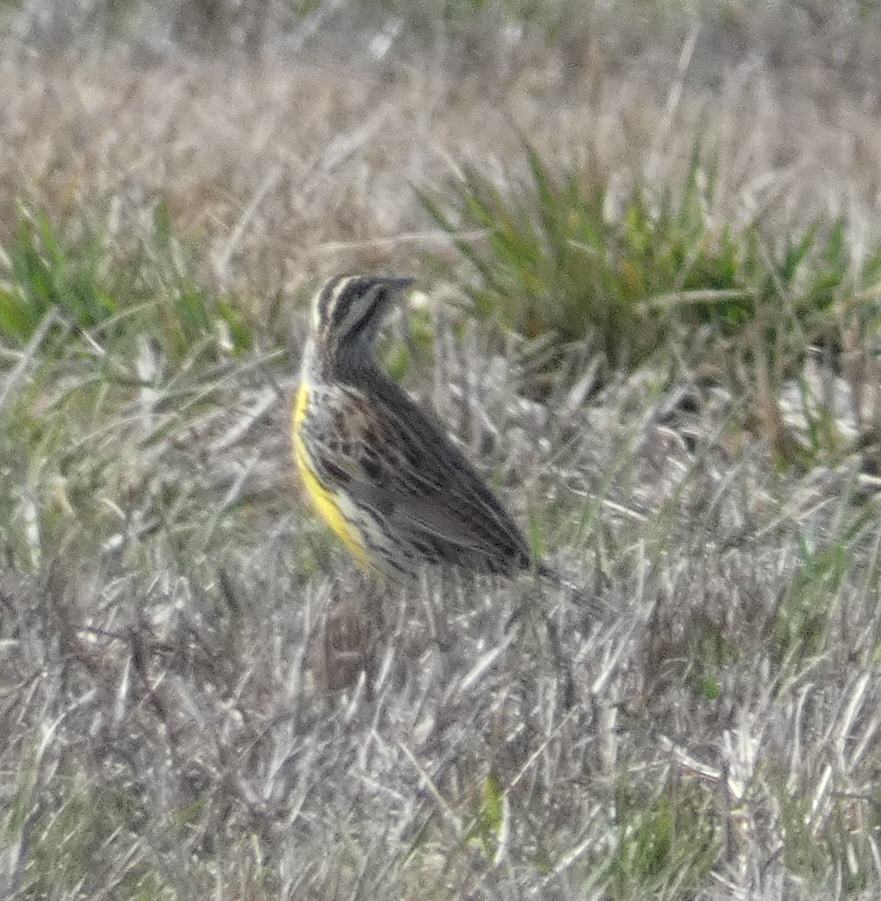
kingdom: Animalia
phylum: Chordata
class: Aves
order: Passeriformes
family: Icteridae
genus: Sturnella
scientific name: Sturnella magna
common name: Eastern meadowlark
